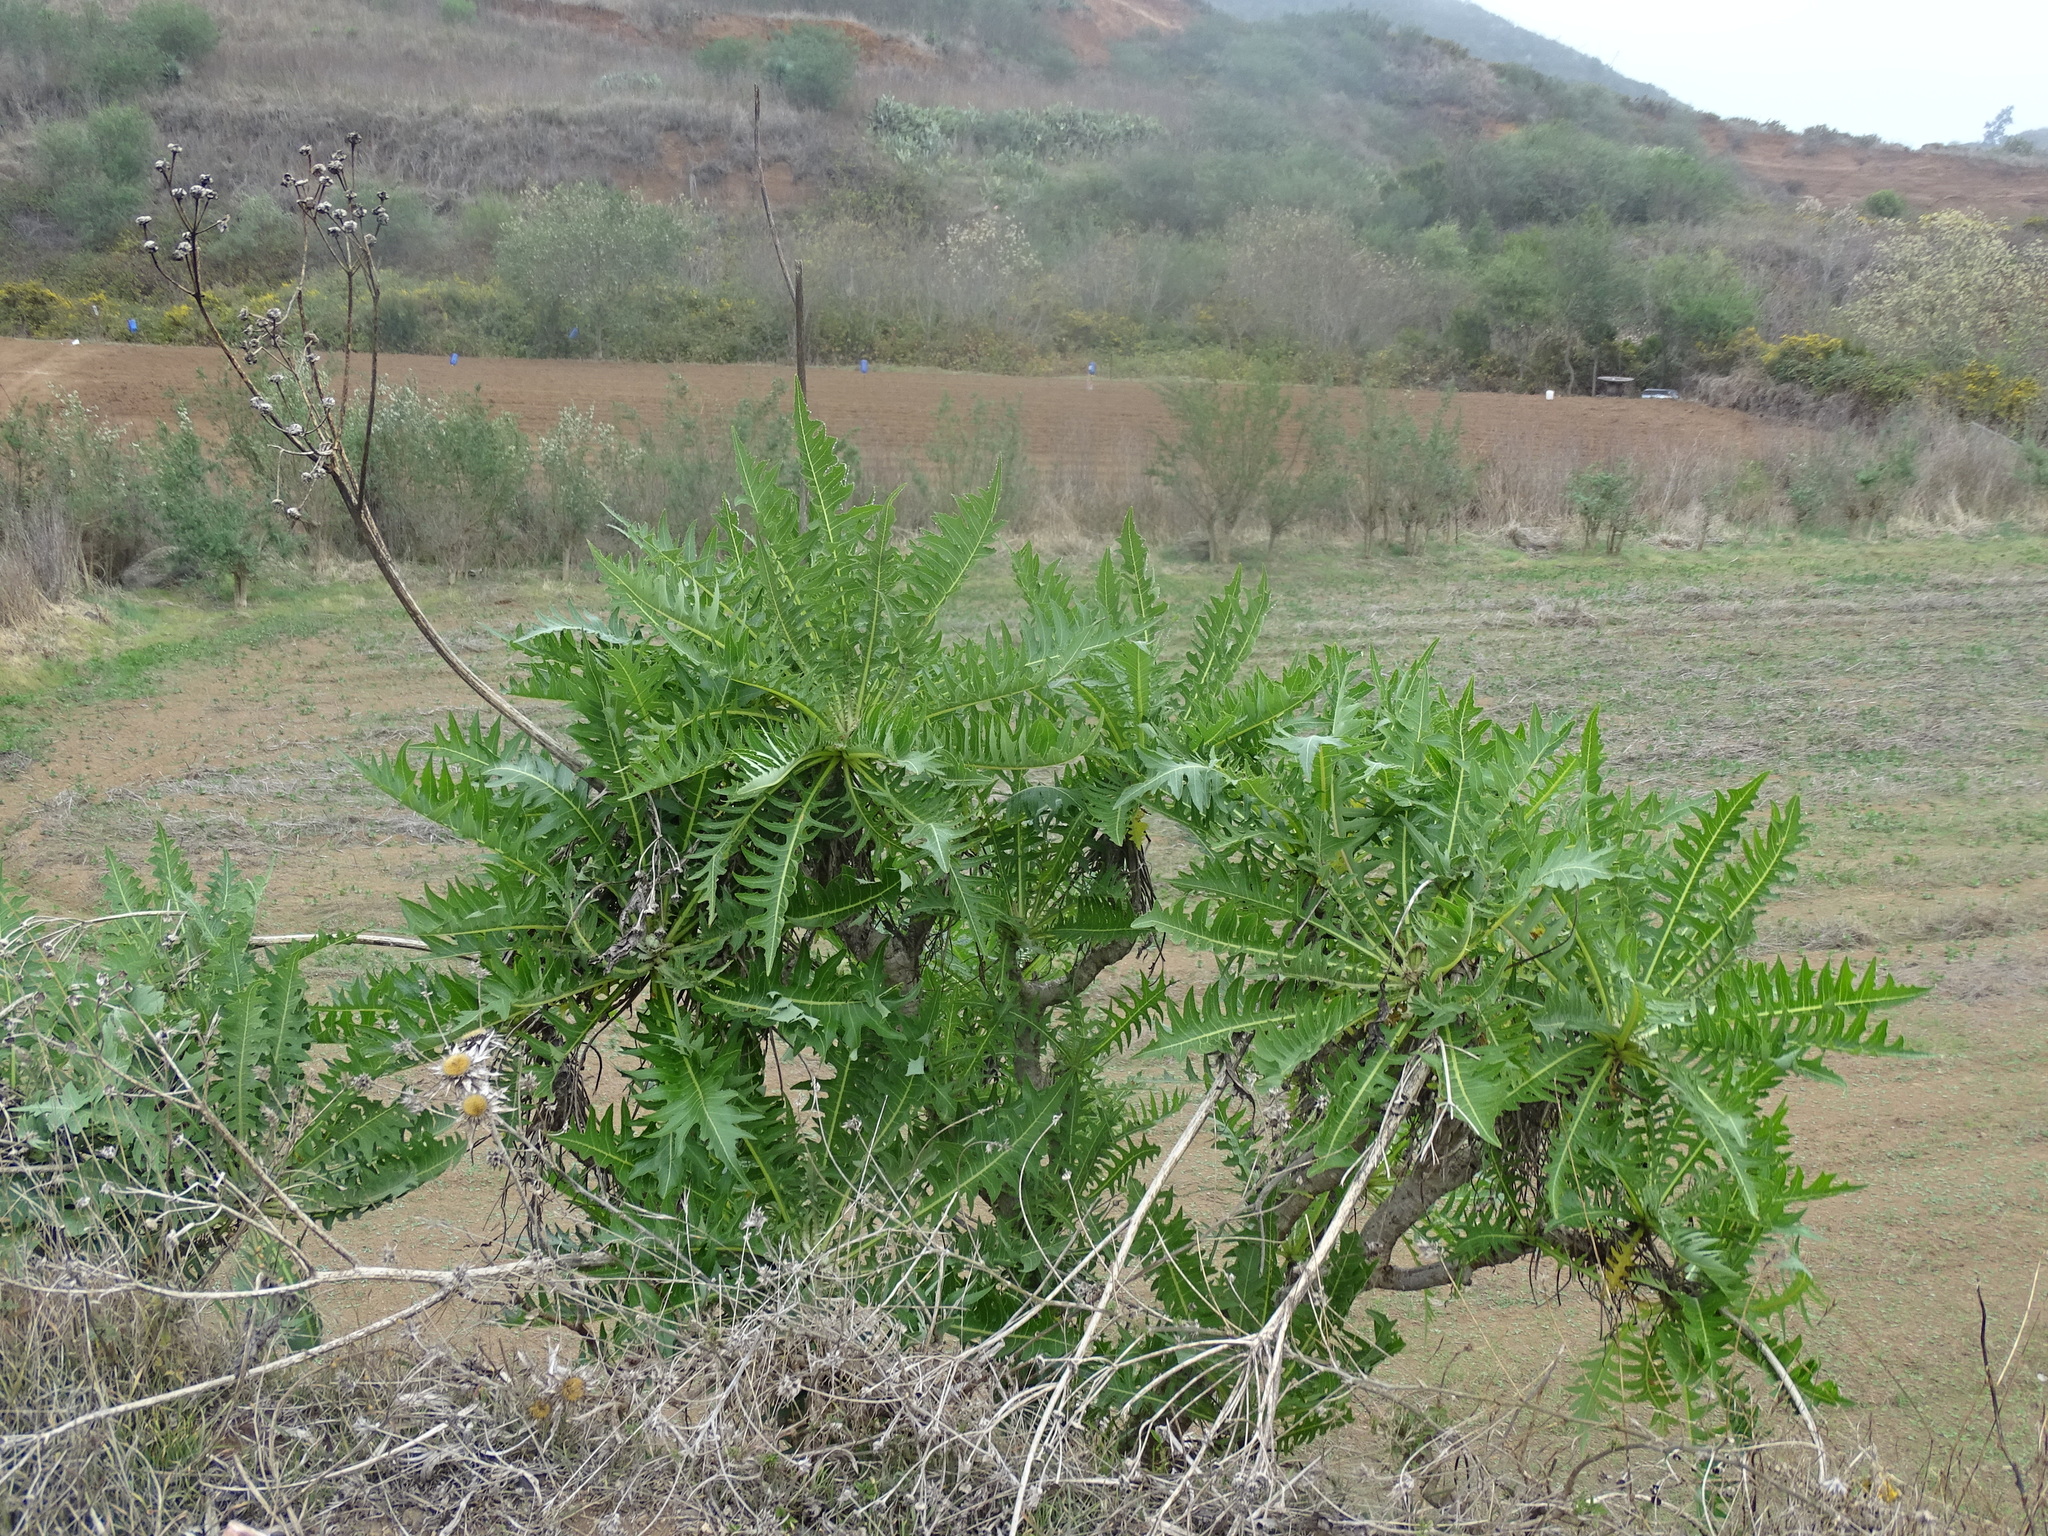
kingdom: Plantae
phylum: Tracheophyta
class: Magnoliopsida
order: Asterales
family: Asteraceae
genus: Sonchus
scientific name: Sonchus canariensis
